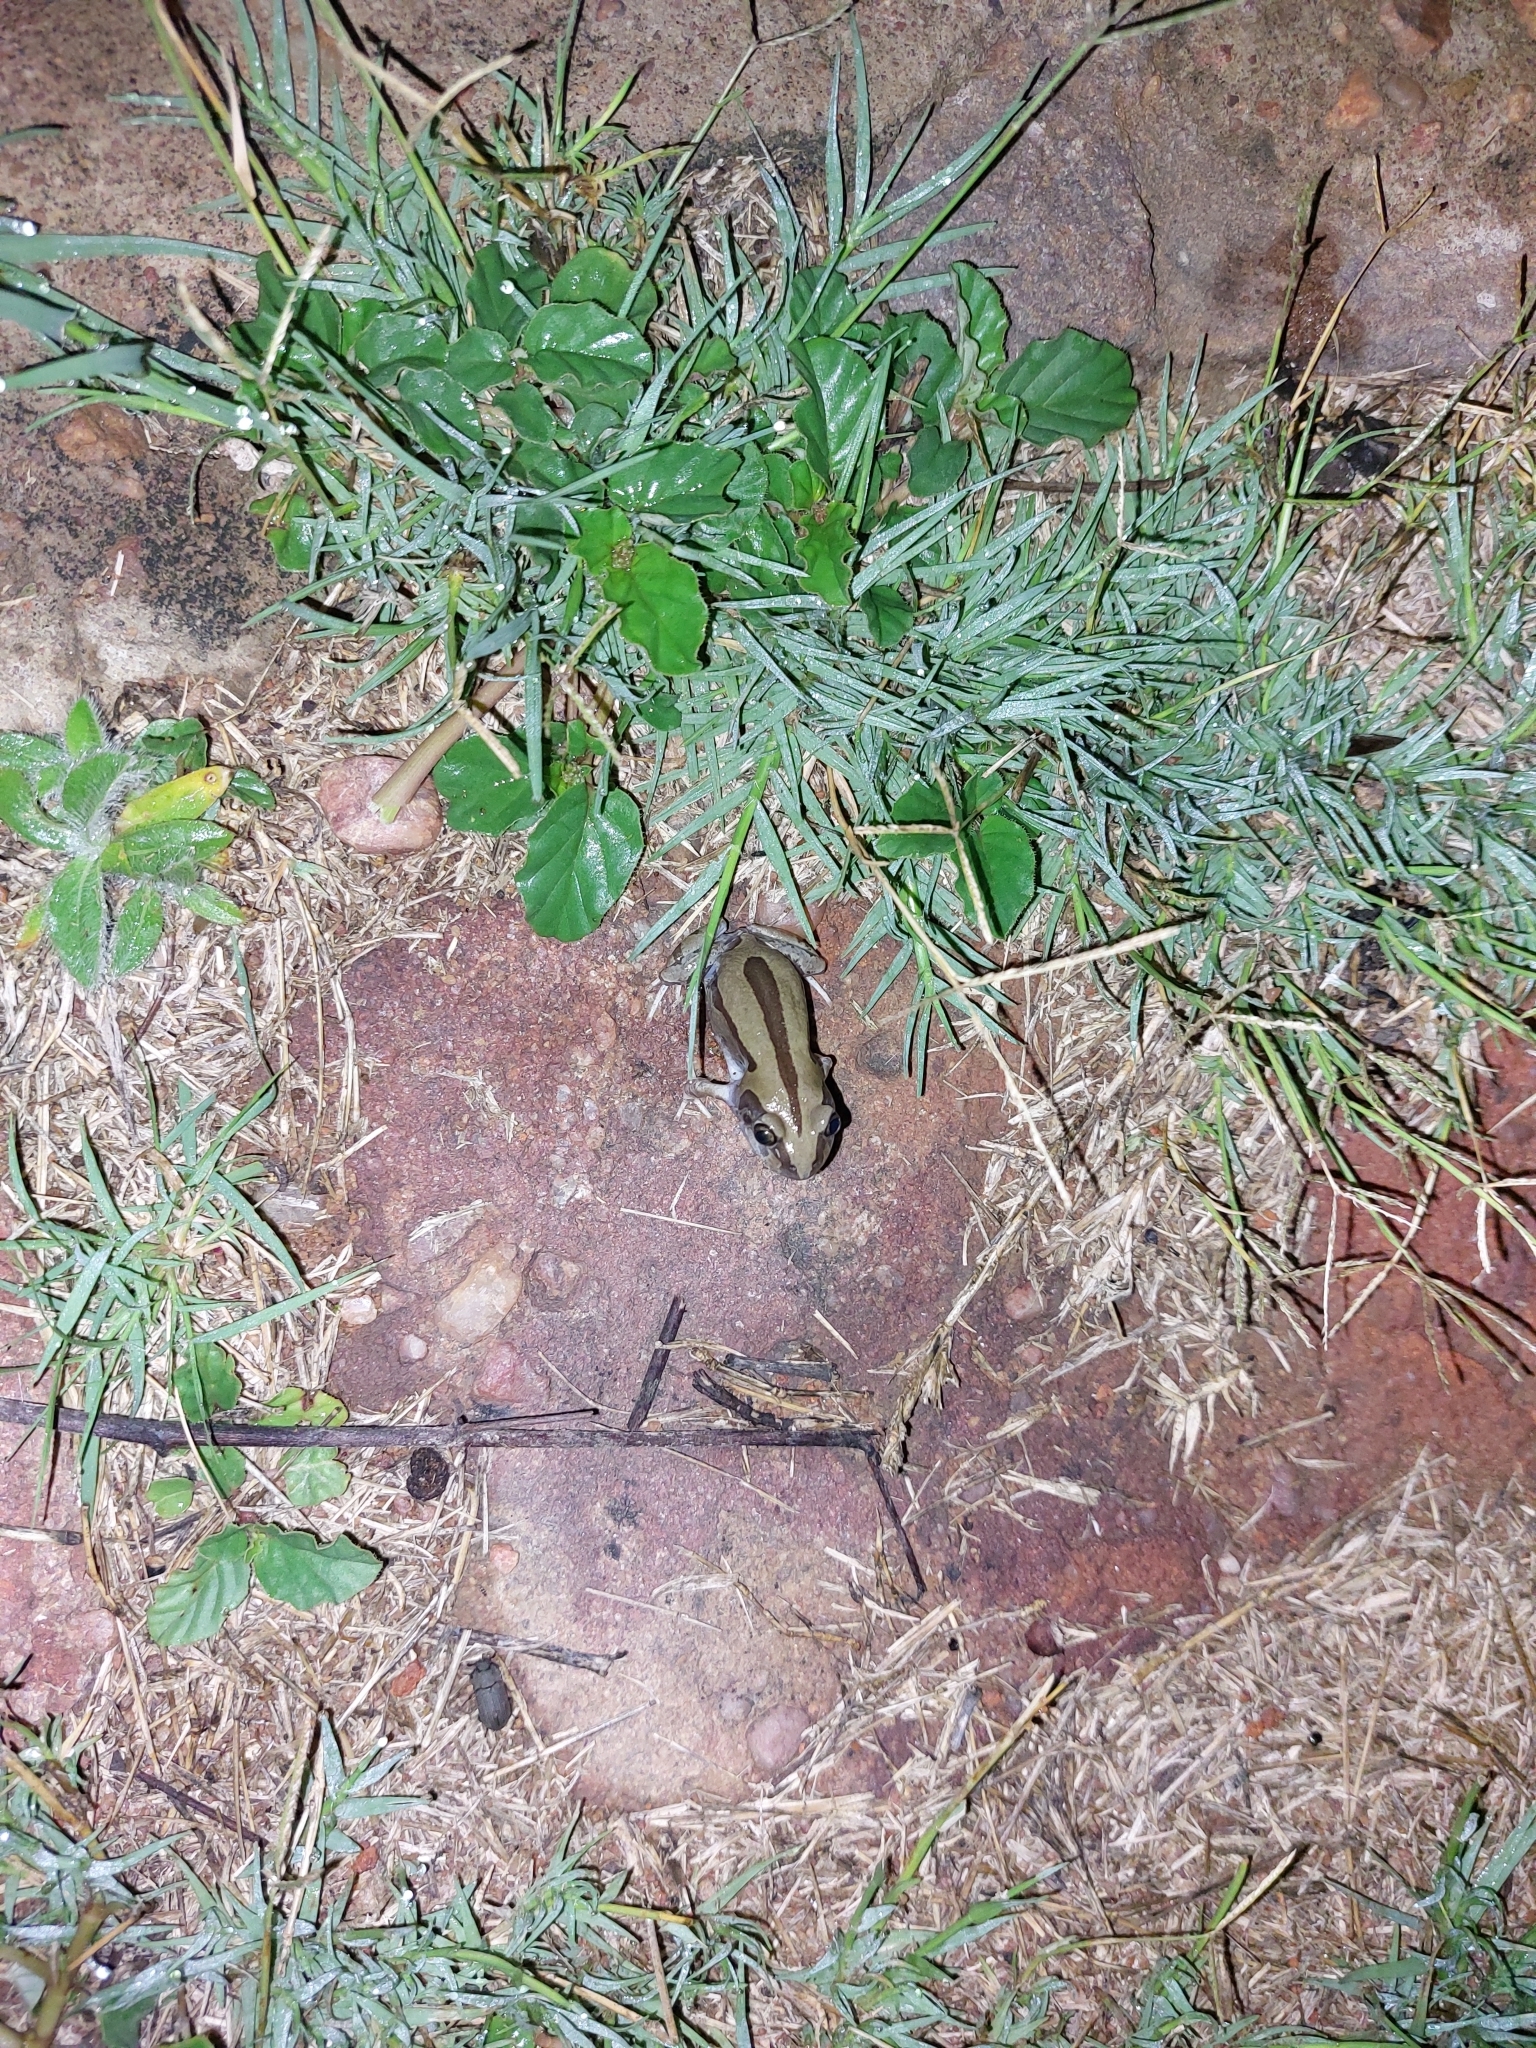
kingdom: Animalia
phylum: Chordata
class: Amphibia
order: Anura
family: Hyperoliidae
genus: Kassina
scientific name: Kassina senegalensis
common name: Senegal land frog
